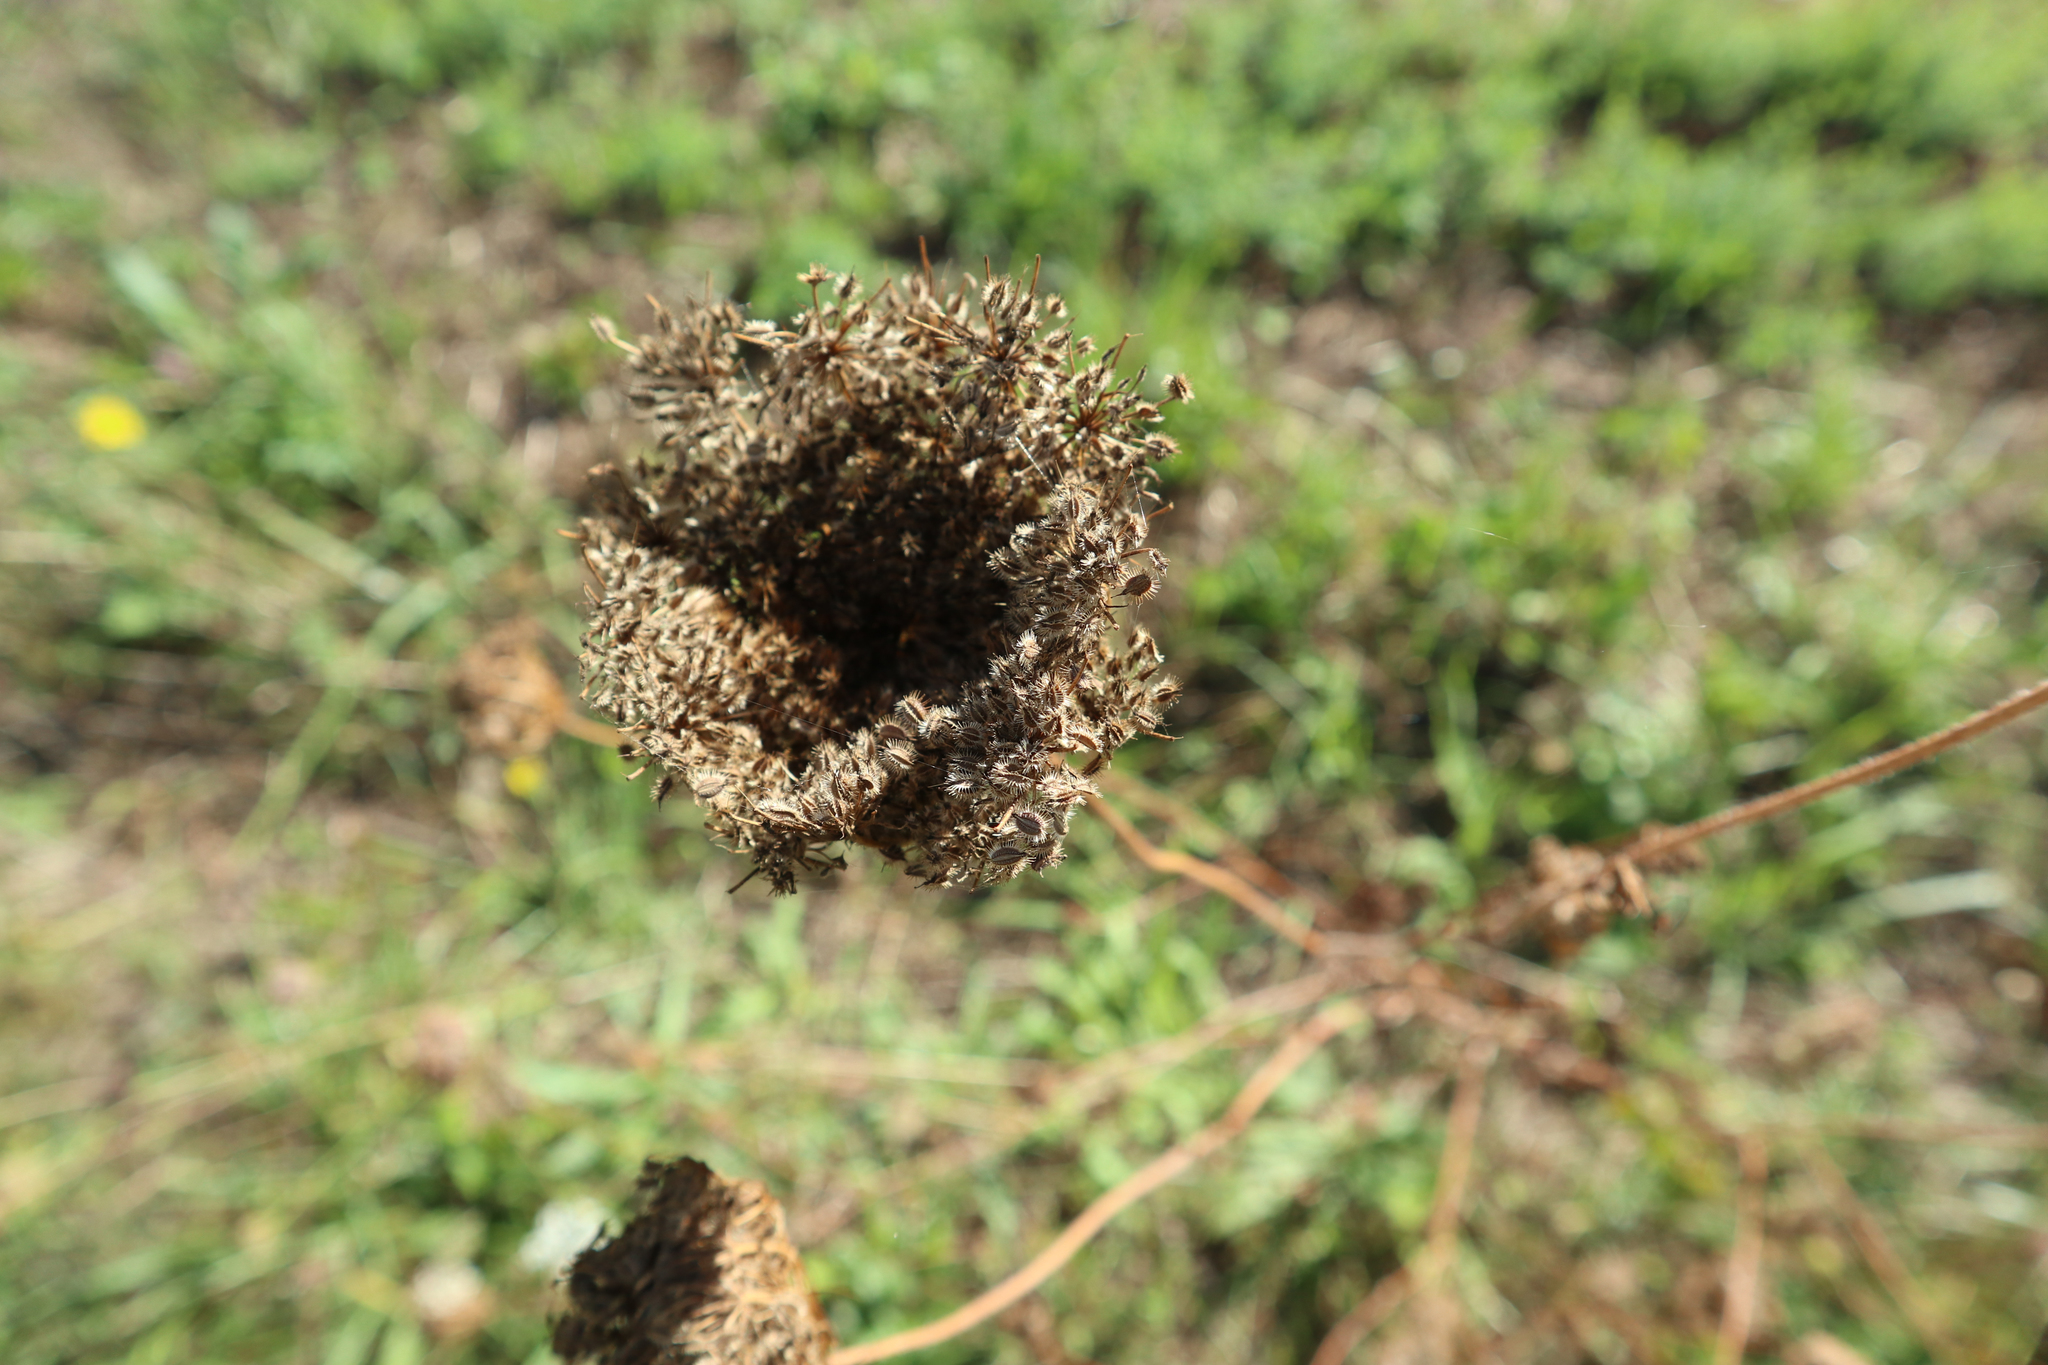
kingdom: Plantae
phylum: Tracheophyta
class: Magnoliopsida
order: Apiales
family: Apiaceae
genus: Daucus
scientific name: Daucus carota
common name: Wild carrot
